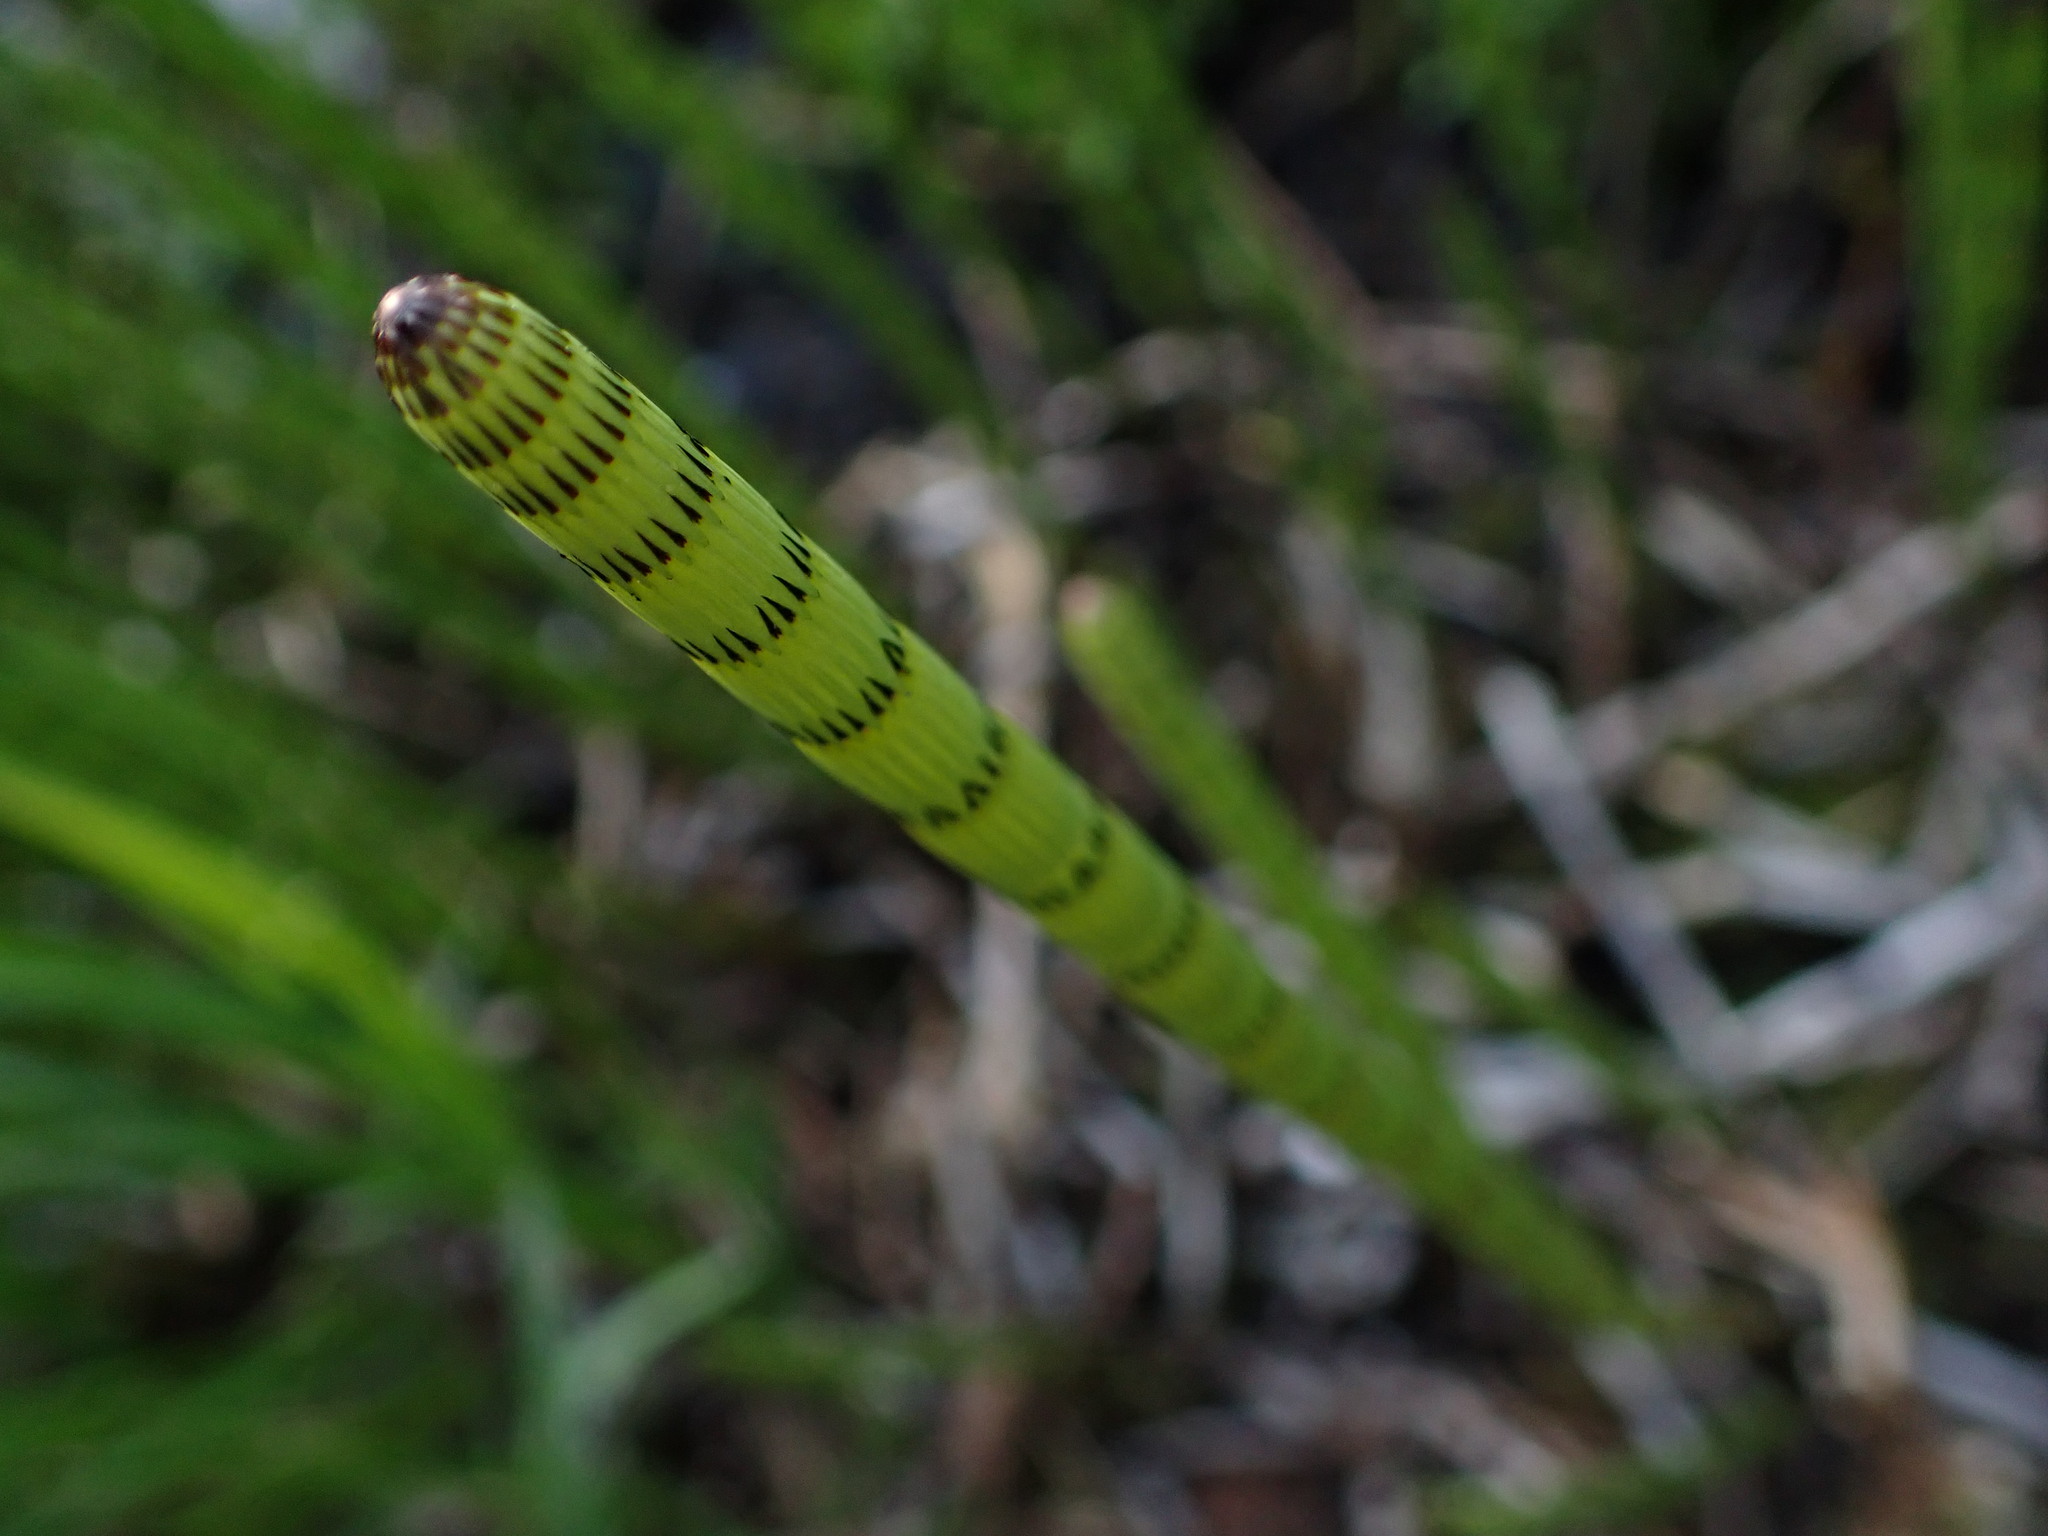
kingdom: Plantae
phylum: Tracheophyta
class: Polypodiopsida
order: Equisetales
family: Equisetaceae
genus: Equisetum
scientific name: Equisetum fluviatile
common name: Water horsetail
